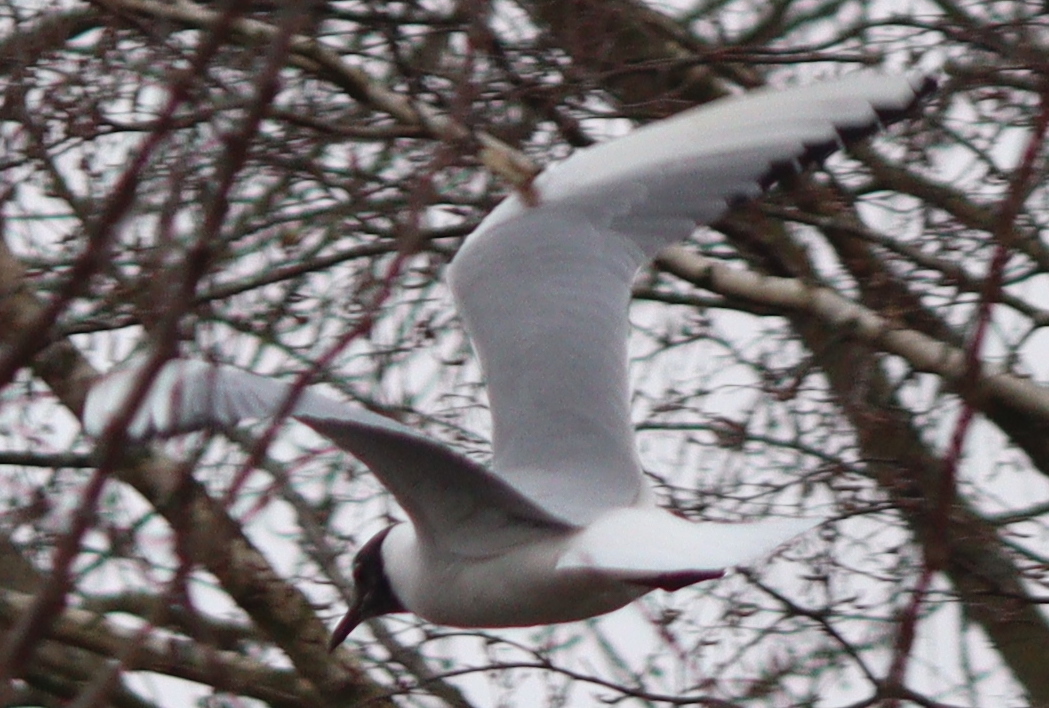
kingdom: Animalia
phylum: Chordata
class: Aves
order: Charadriiformes
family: Laridae
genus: Chroicocephalus
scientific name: Chroicocephalus ridibundus
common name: Black-headed gull
